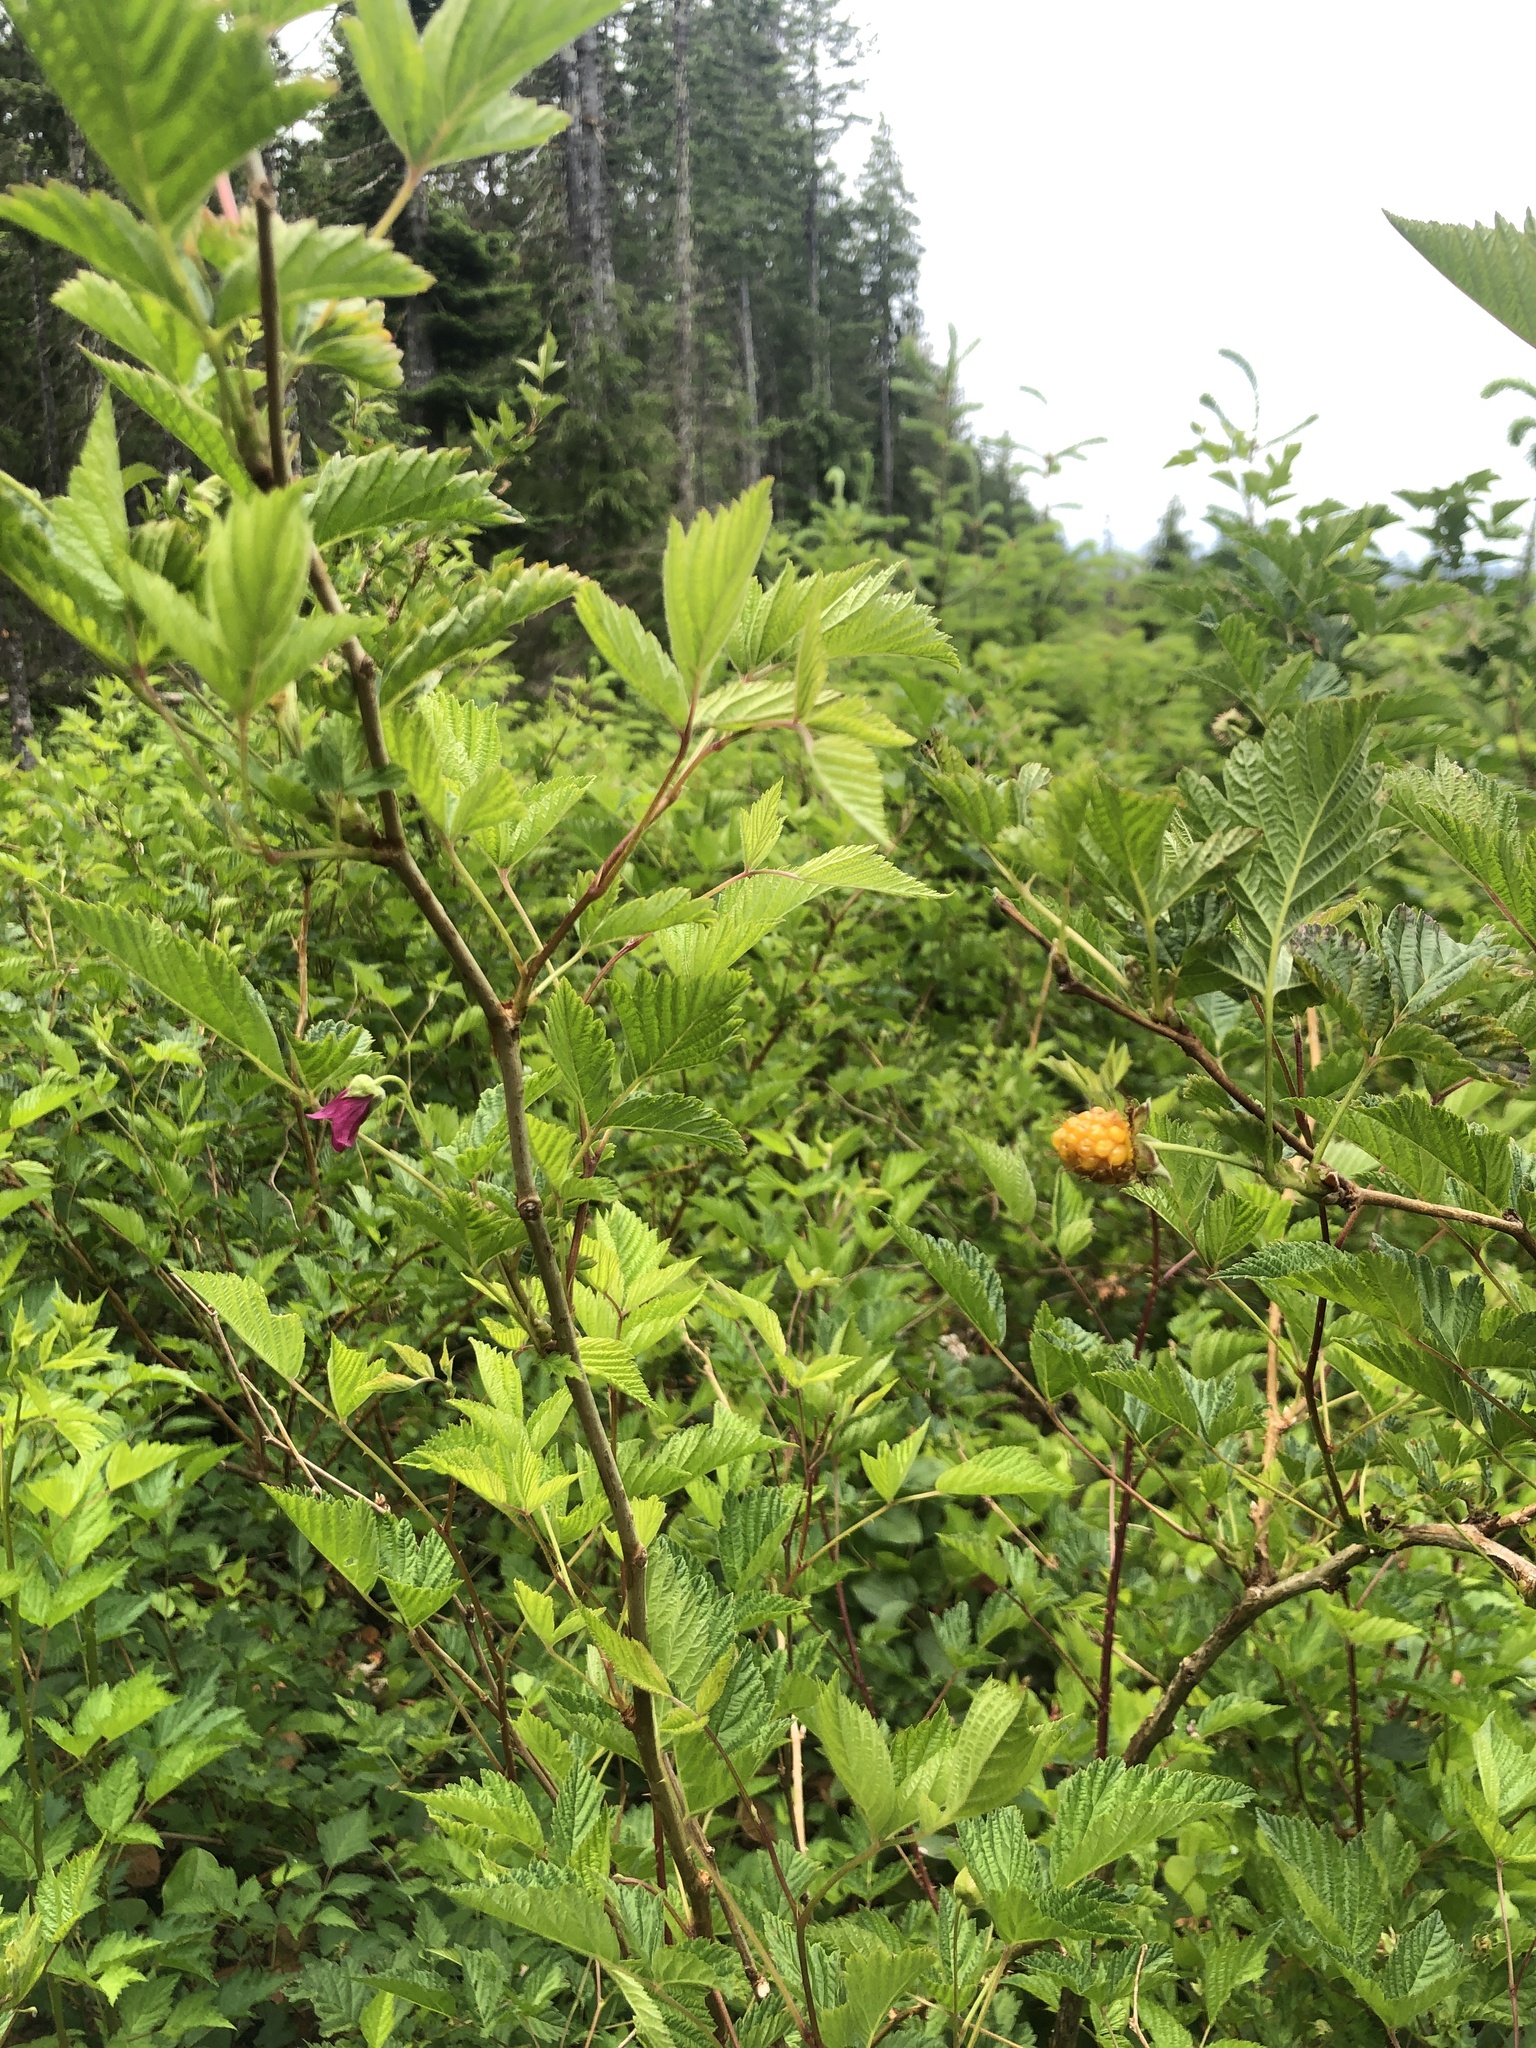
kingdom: Plantae
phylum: Tracheophyta
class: Magnoliopsida
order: Rosales
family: Rosaceae
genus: Rubus
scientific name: Rubus spectabilis
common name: Salmonberry
